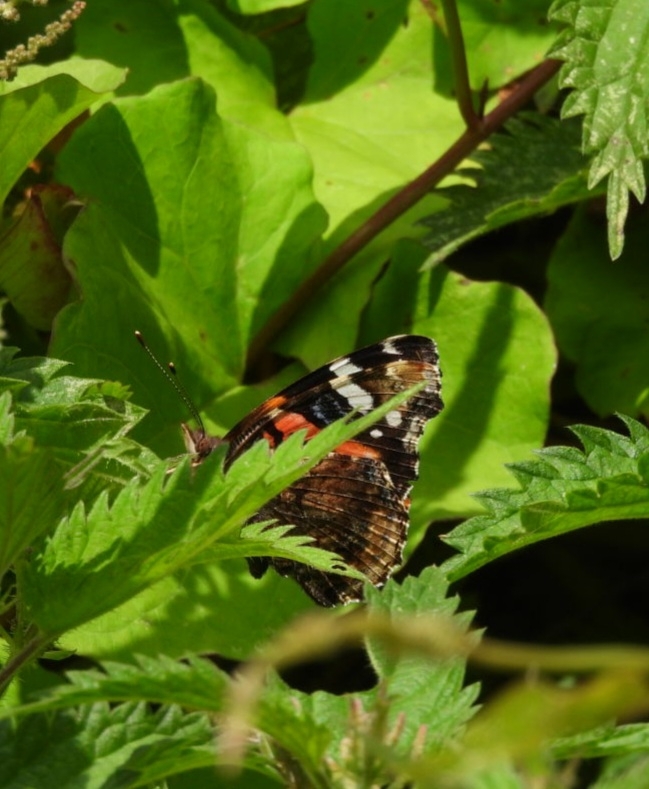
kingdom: Animalia
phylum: Arthropoda
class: Insecta
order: Lepidoptera
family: Nymphalidae
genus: Vanessa
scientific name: Vanessa atalanta
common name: Red admiral
